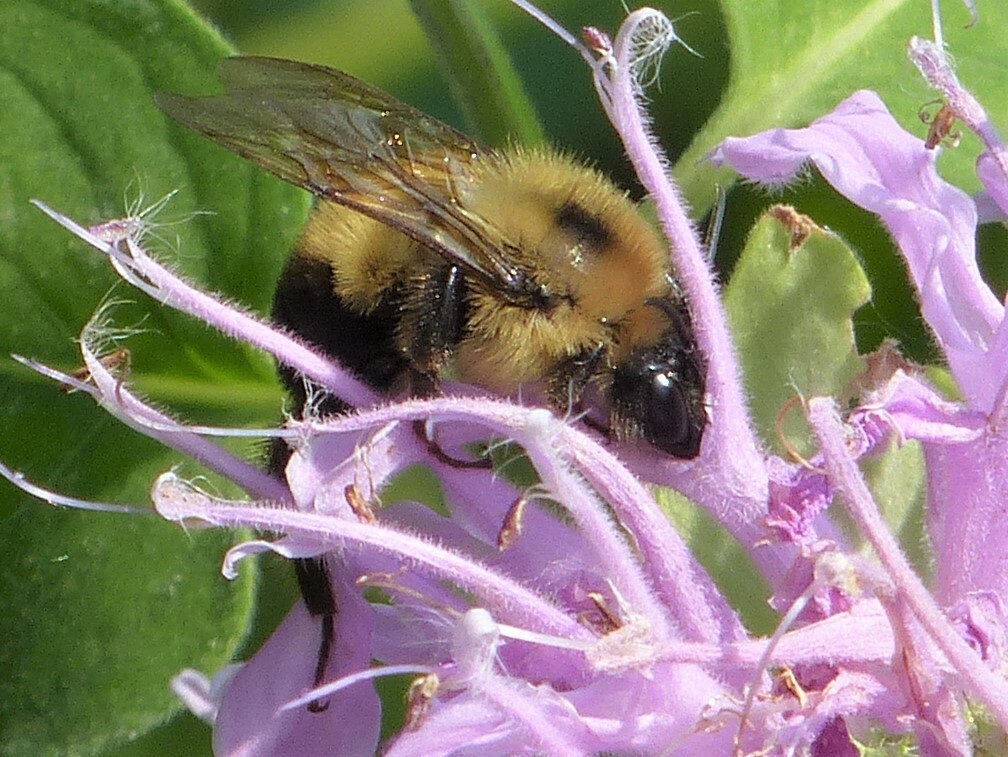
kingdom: Animalia
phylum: Arthropoda
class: Insecta
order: Hymenoptera
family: Apidae
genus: Bombus
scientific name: Bombus bimaculatus
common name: Two-spotted bumble bee
